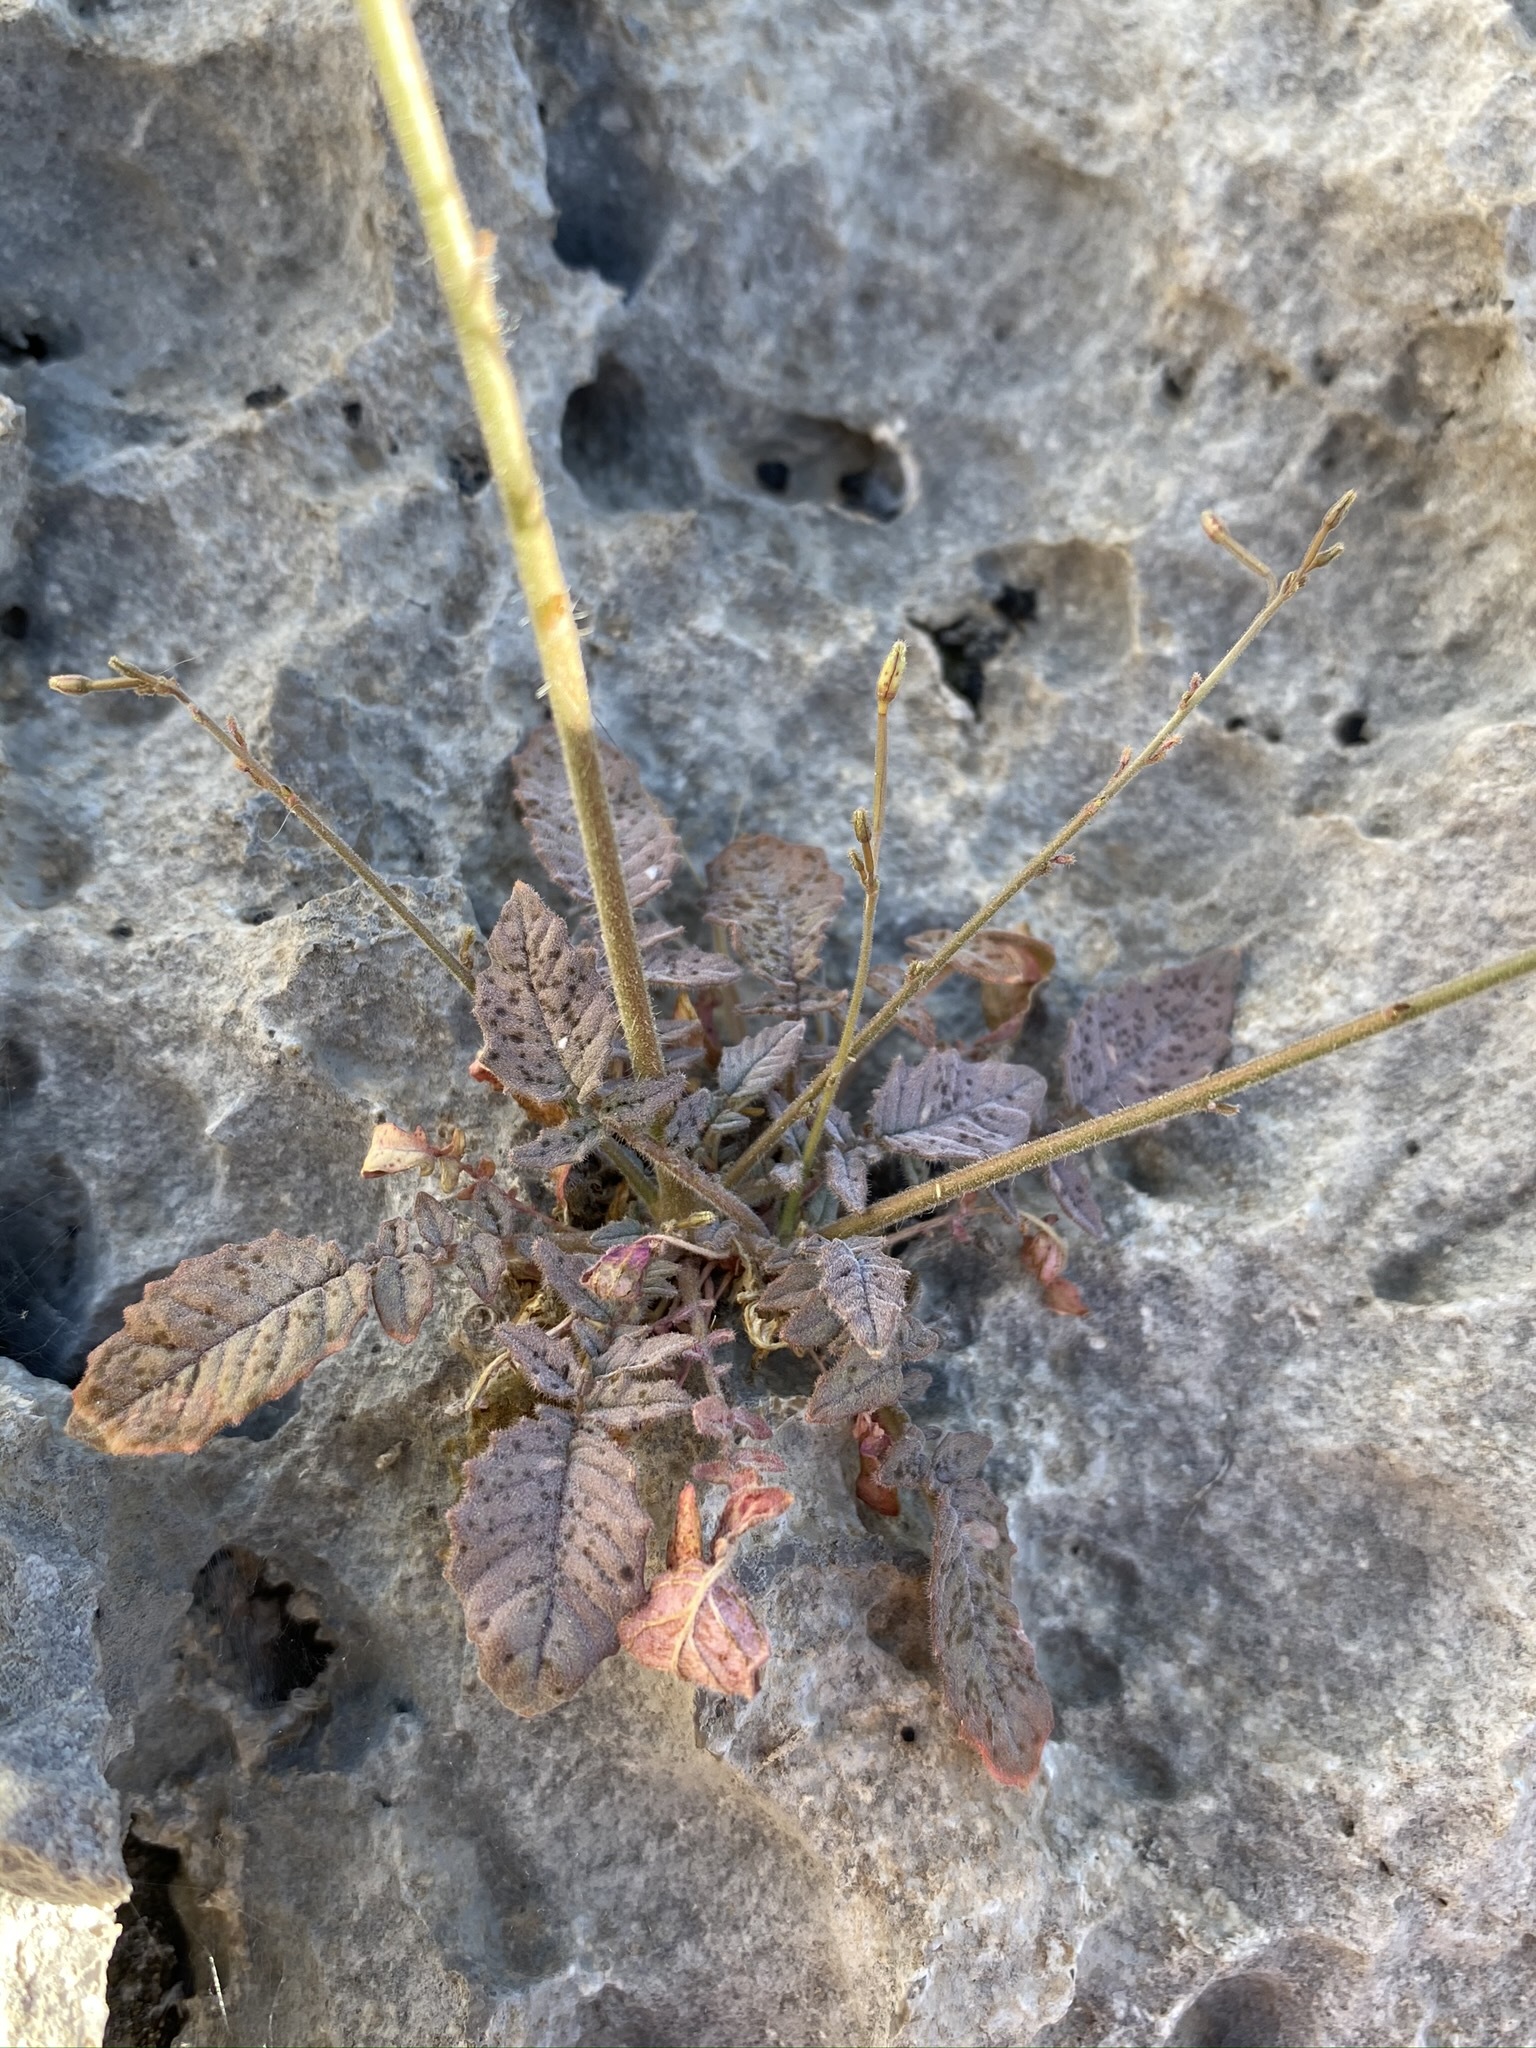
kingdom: Plantae
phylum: Tracheophyta
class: Magnoliopsida
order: Myrtales
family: Onagraceae
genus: Chylismia
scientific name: Chylismia walkeri
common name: Walker's suncup
